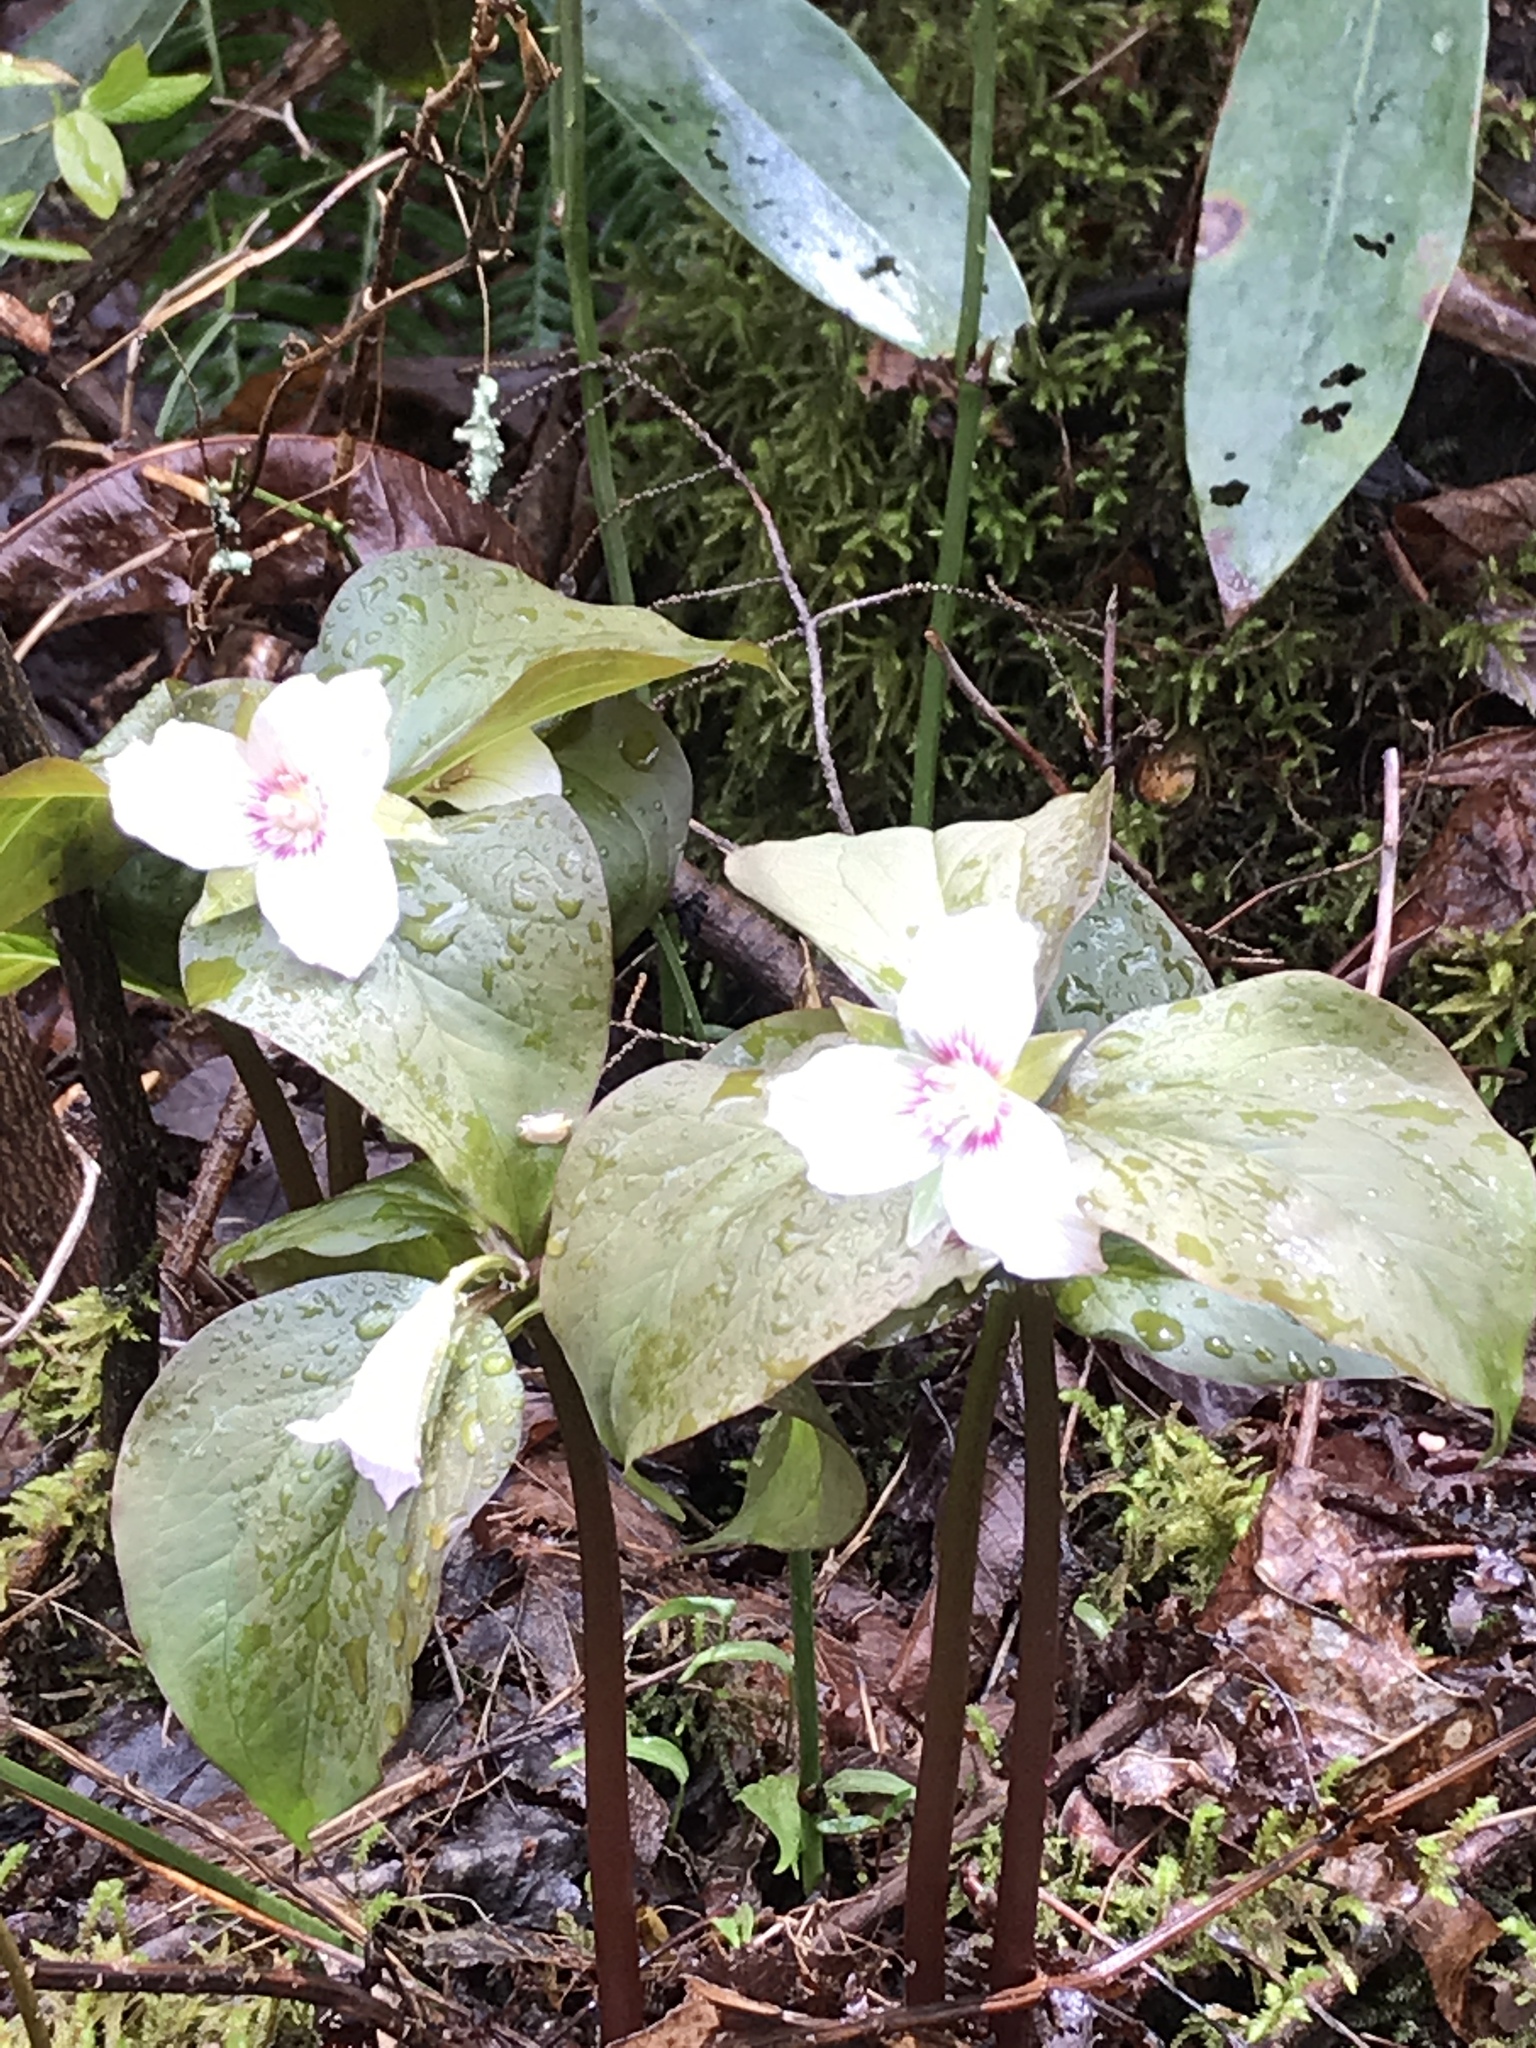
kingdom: Plantae
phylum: Tracheophyta
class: Liliopsida
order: Liliales
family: Melanthiaceae
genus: Trillium
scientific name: Trillium undulatum
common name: Paint trillium
